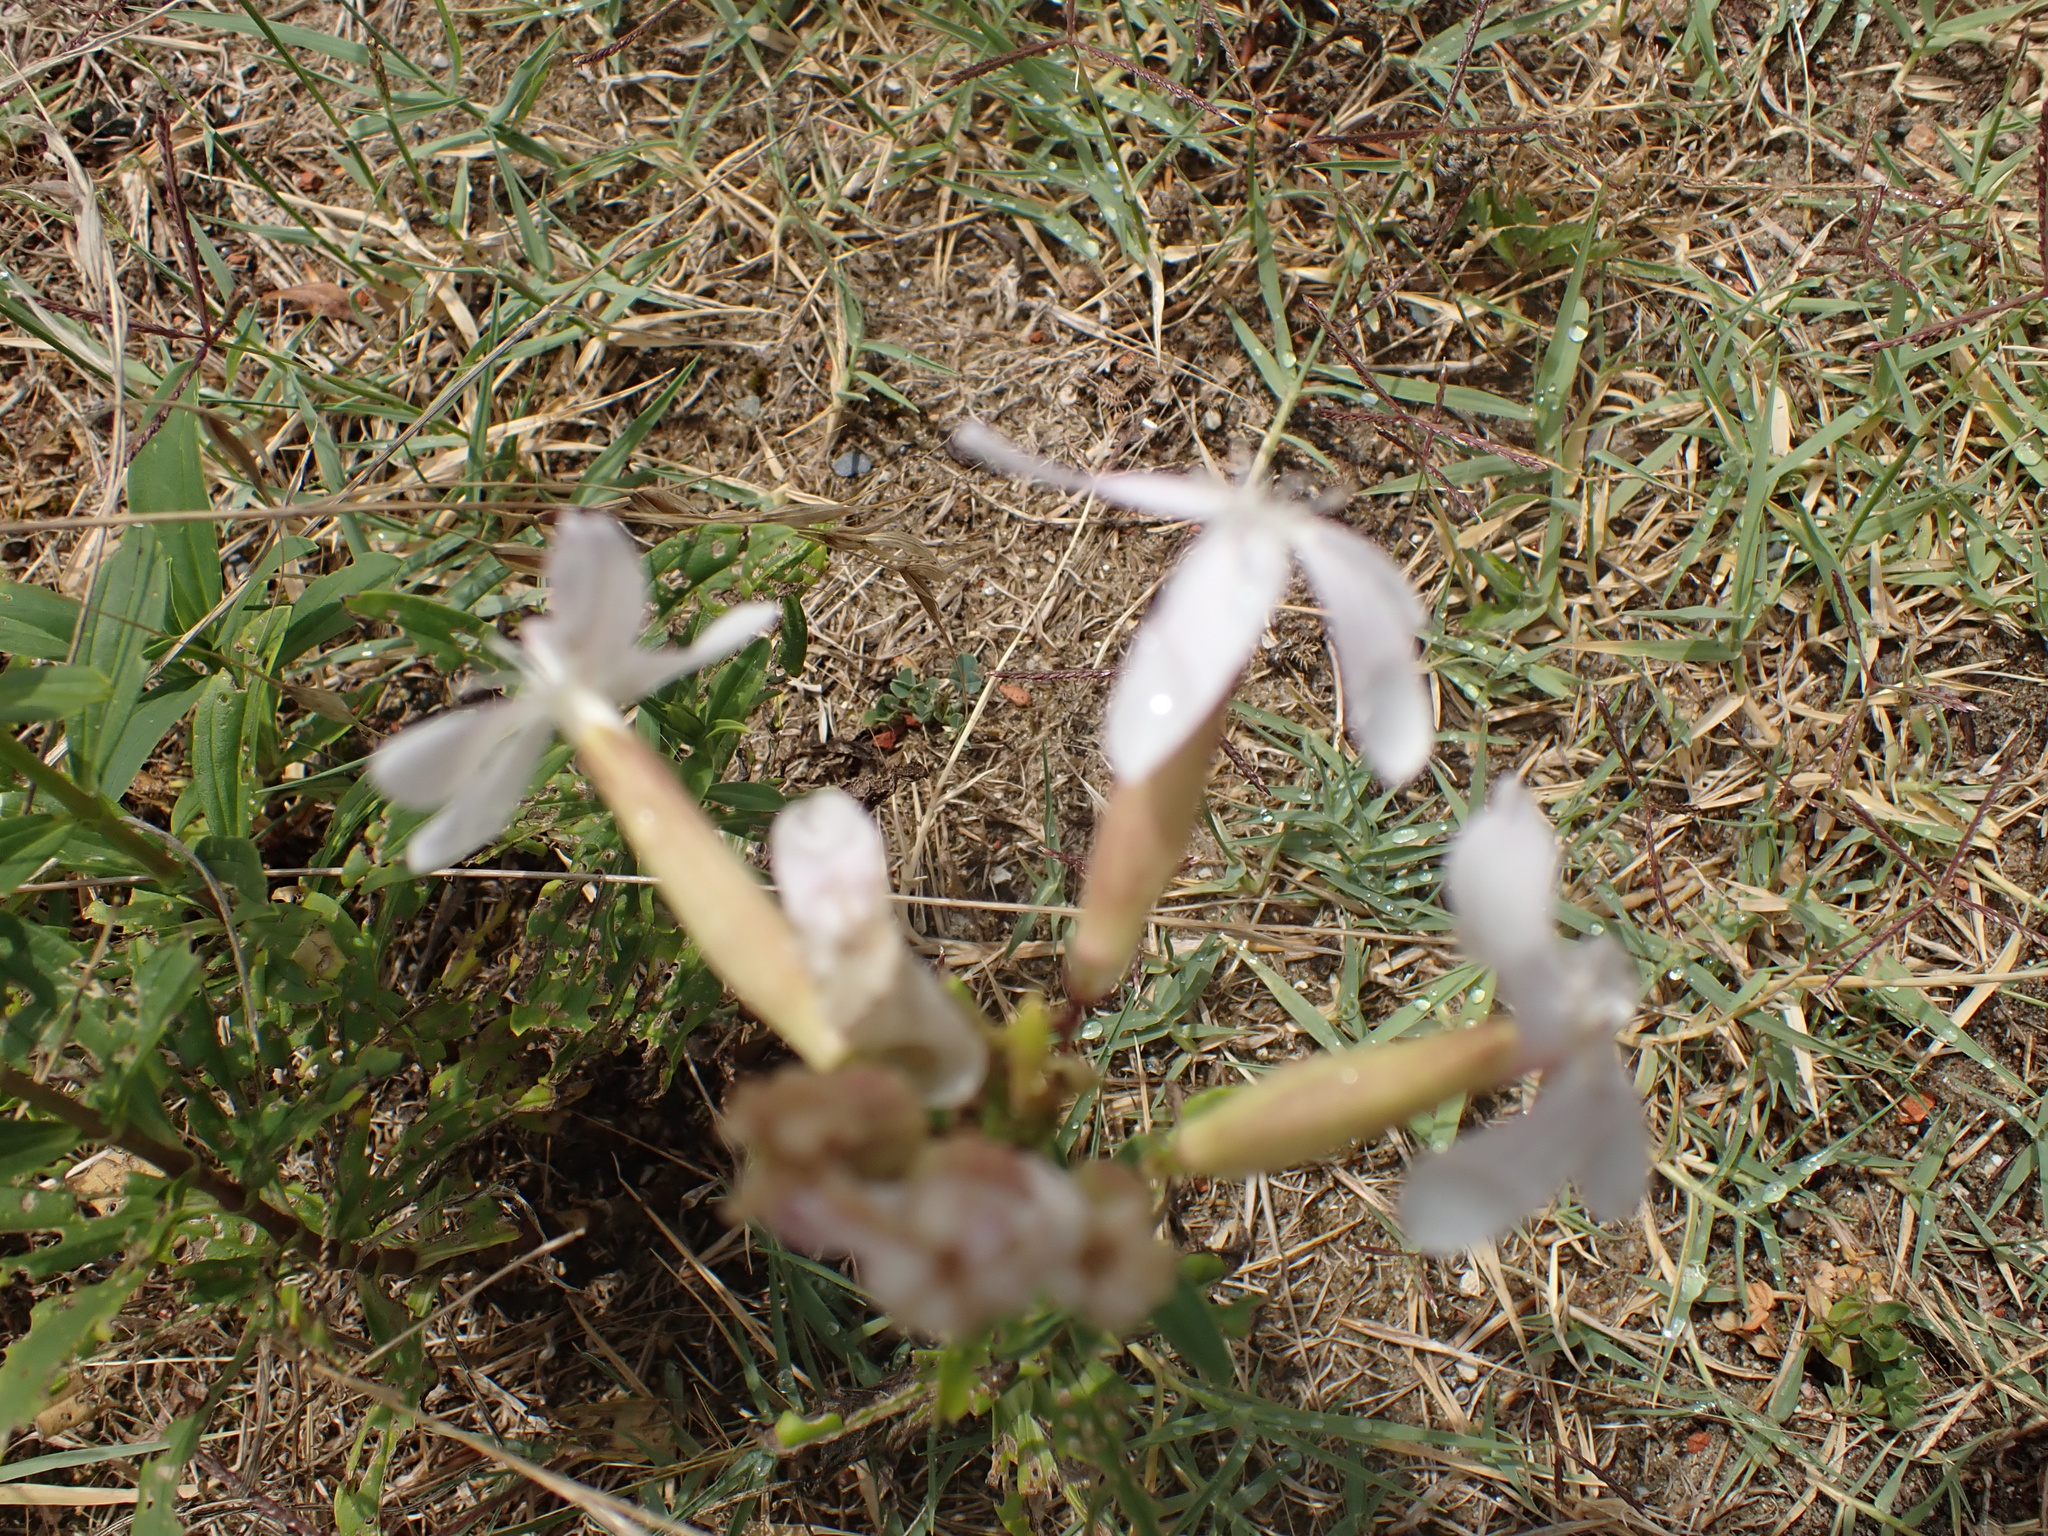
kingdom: Plantae
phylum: Tracheophyta
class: Magnoliopsida
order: Caryophyllales
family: Caryophyllaceae
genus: Saponaria
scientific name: Saponaria officinalis
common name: Soapwort
